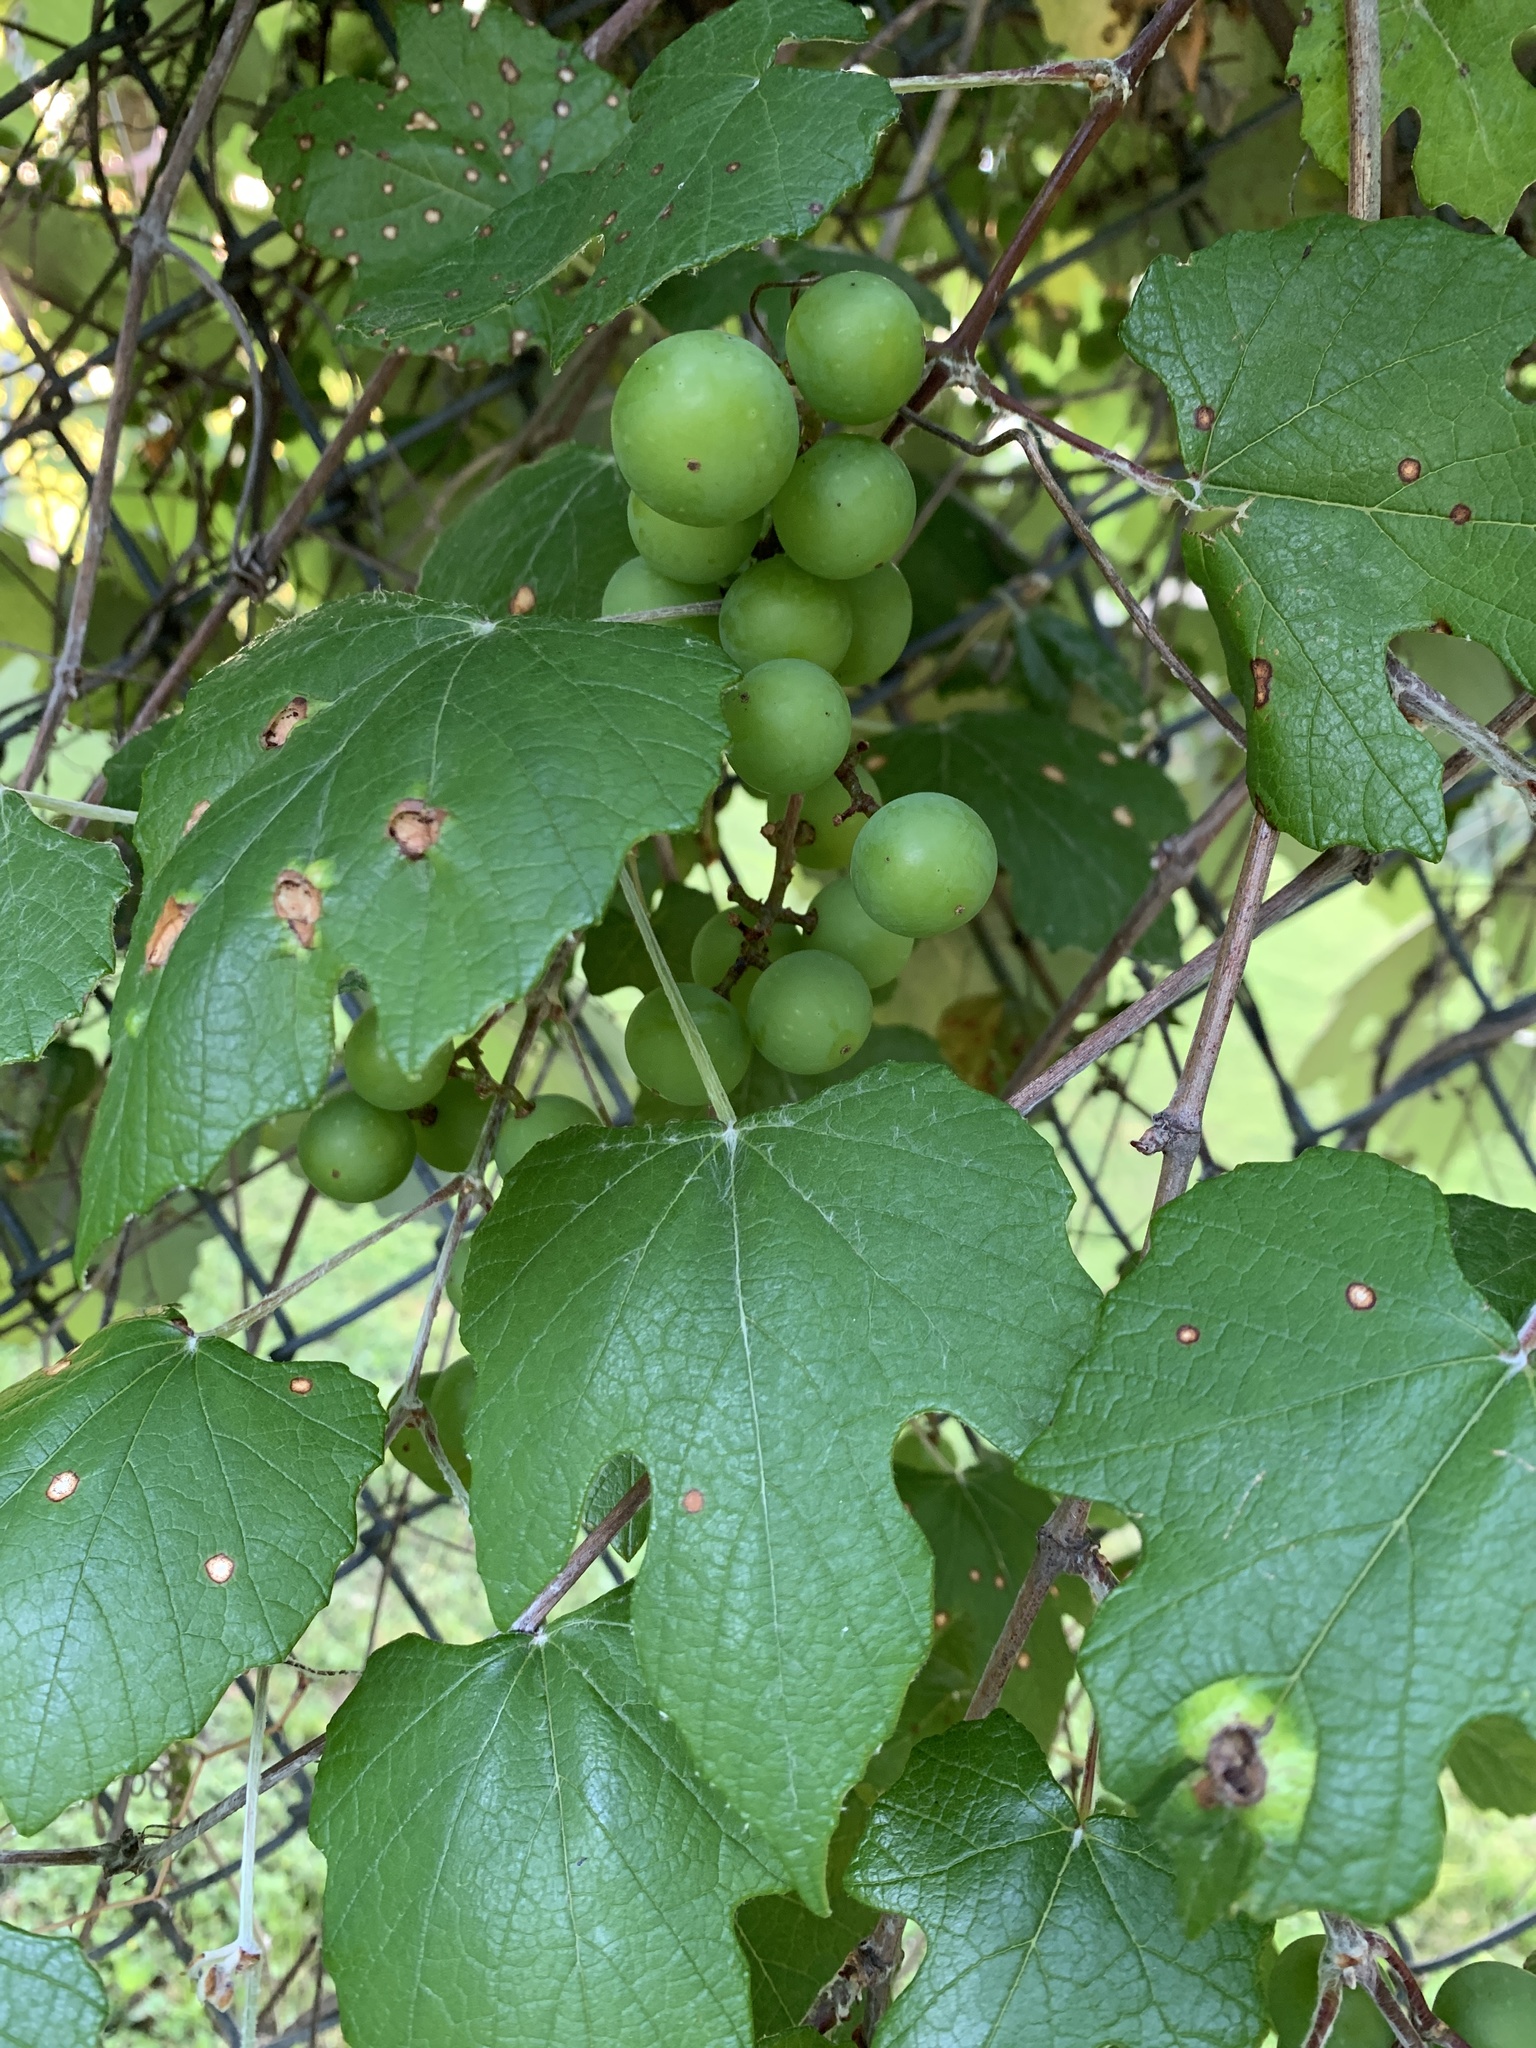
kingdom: Plantae
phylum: Tracheophyta
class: Magnoliopsida
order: Vitales
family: Vitaceae
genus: Vitis
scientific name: Vitis mustangensis
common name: Mustang grape
